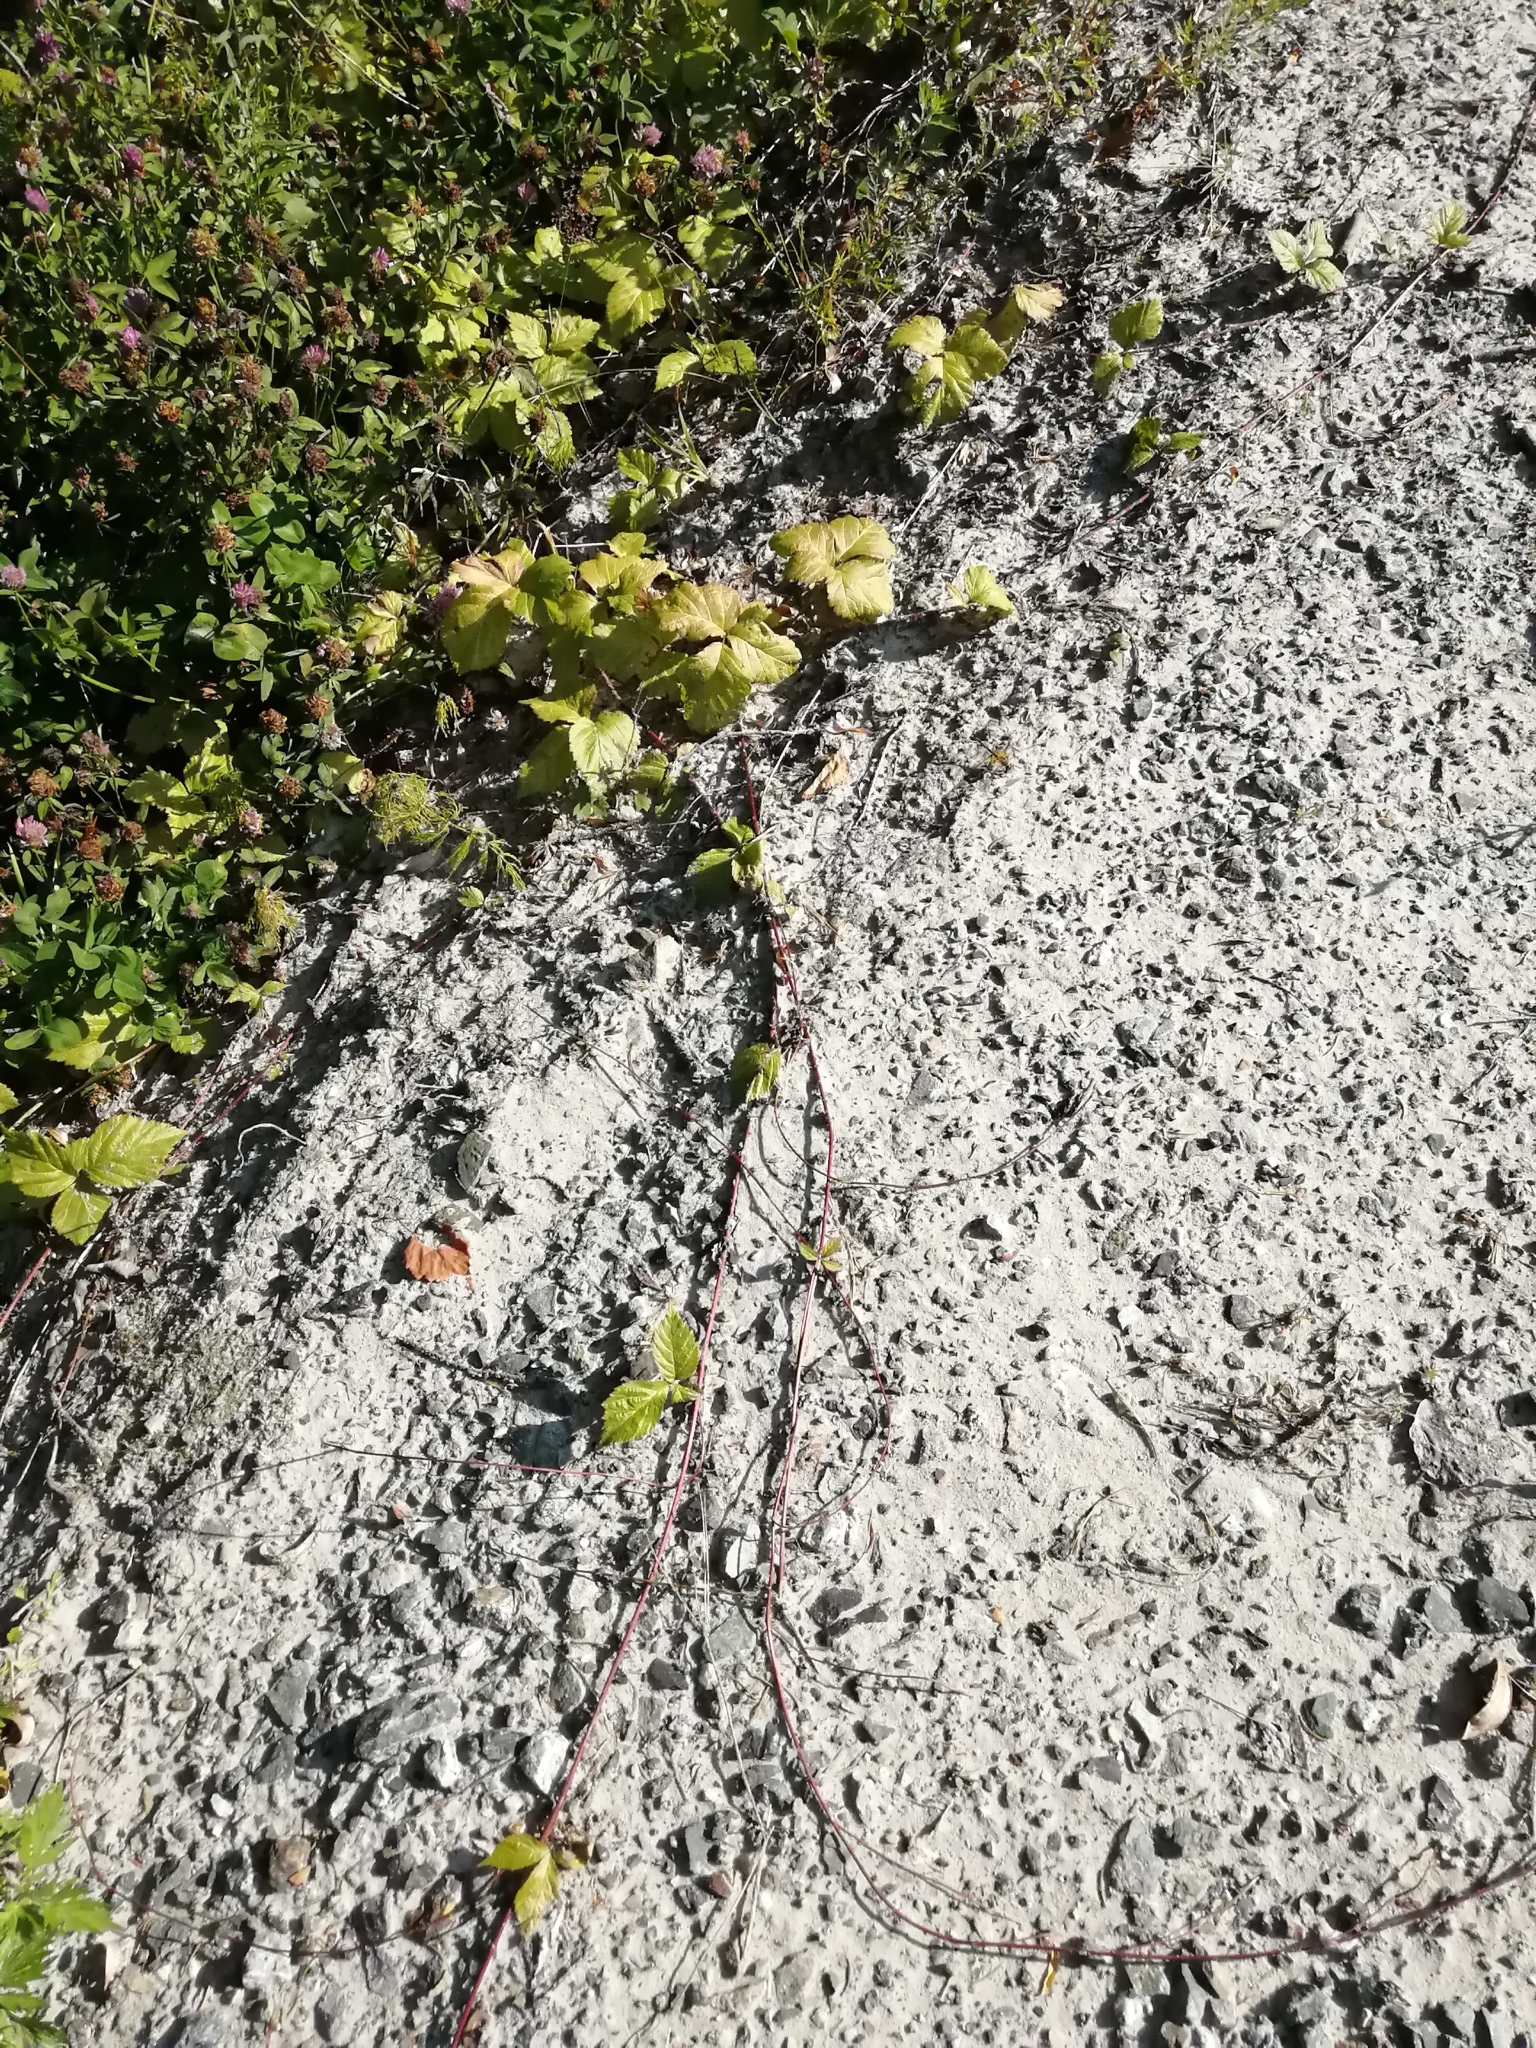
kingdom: Plantae
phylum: Tracheophyta
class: Magnoliopsida
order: Rosales
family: Rosaceae
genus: Rubus
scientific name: Rubus saxatilis
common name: Stone bramble
